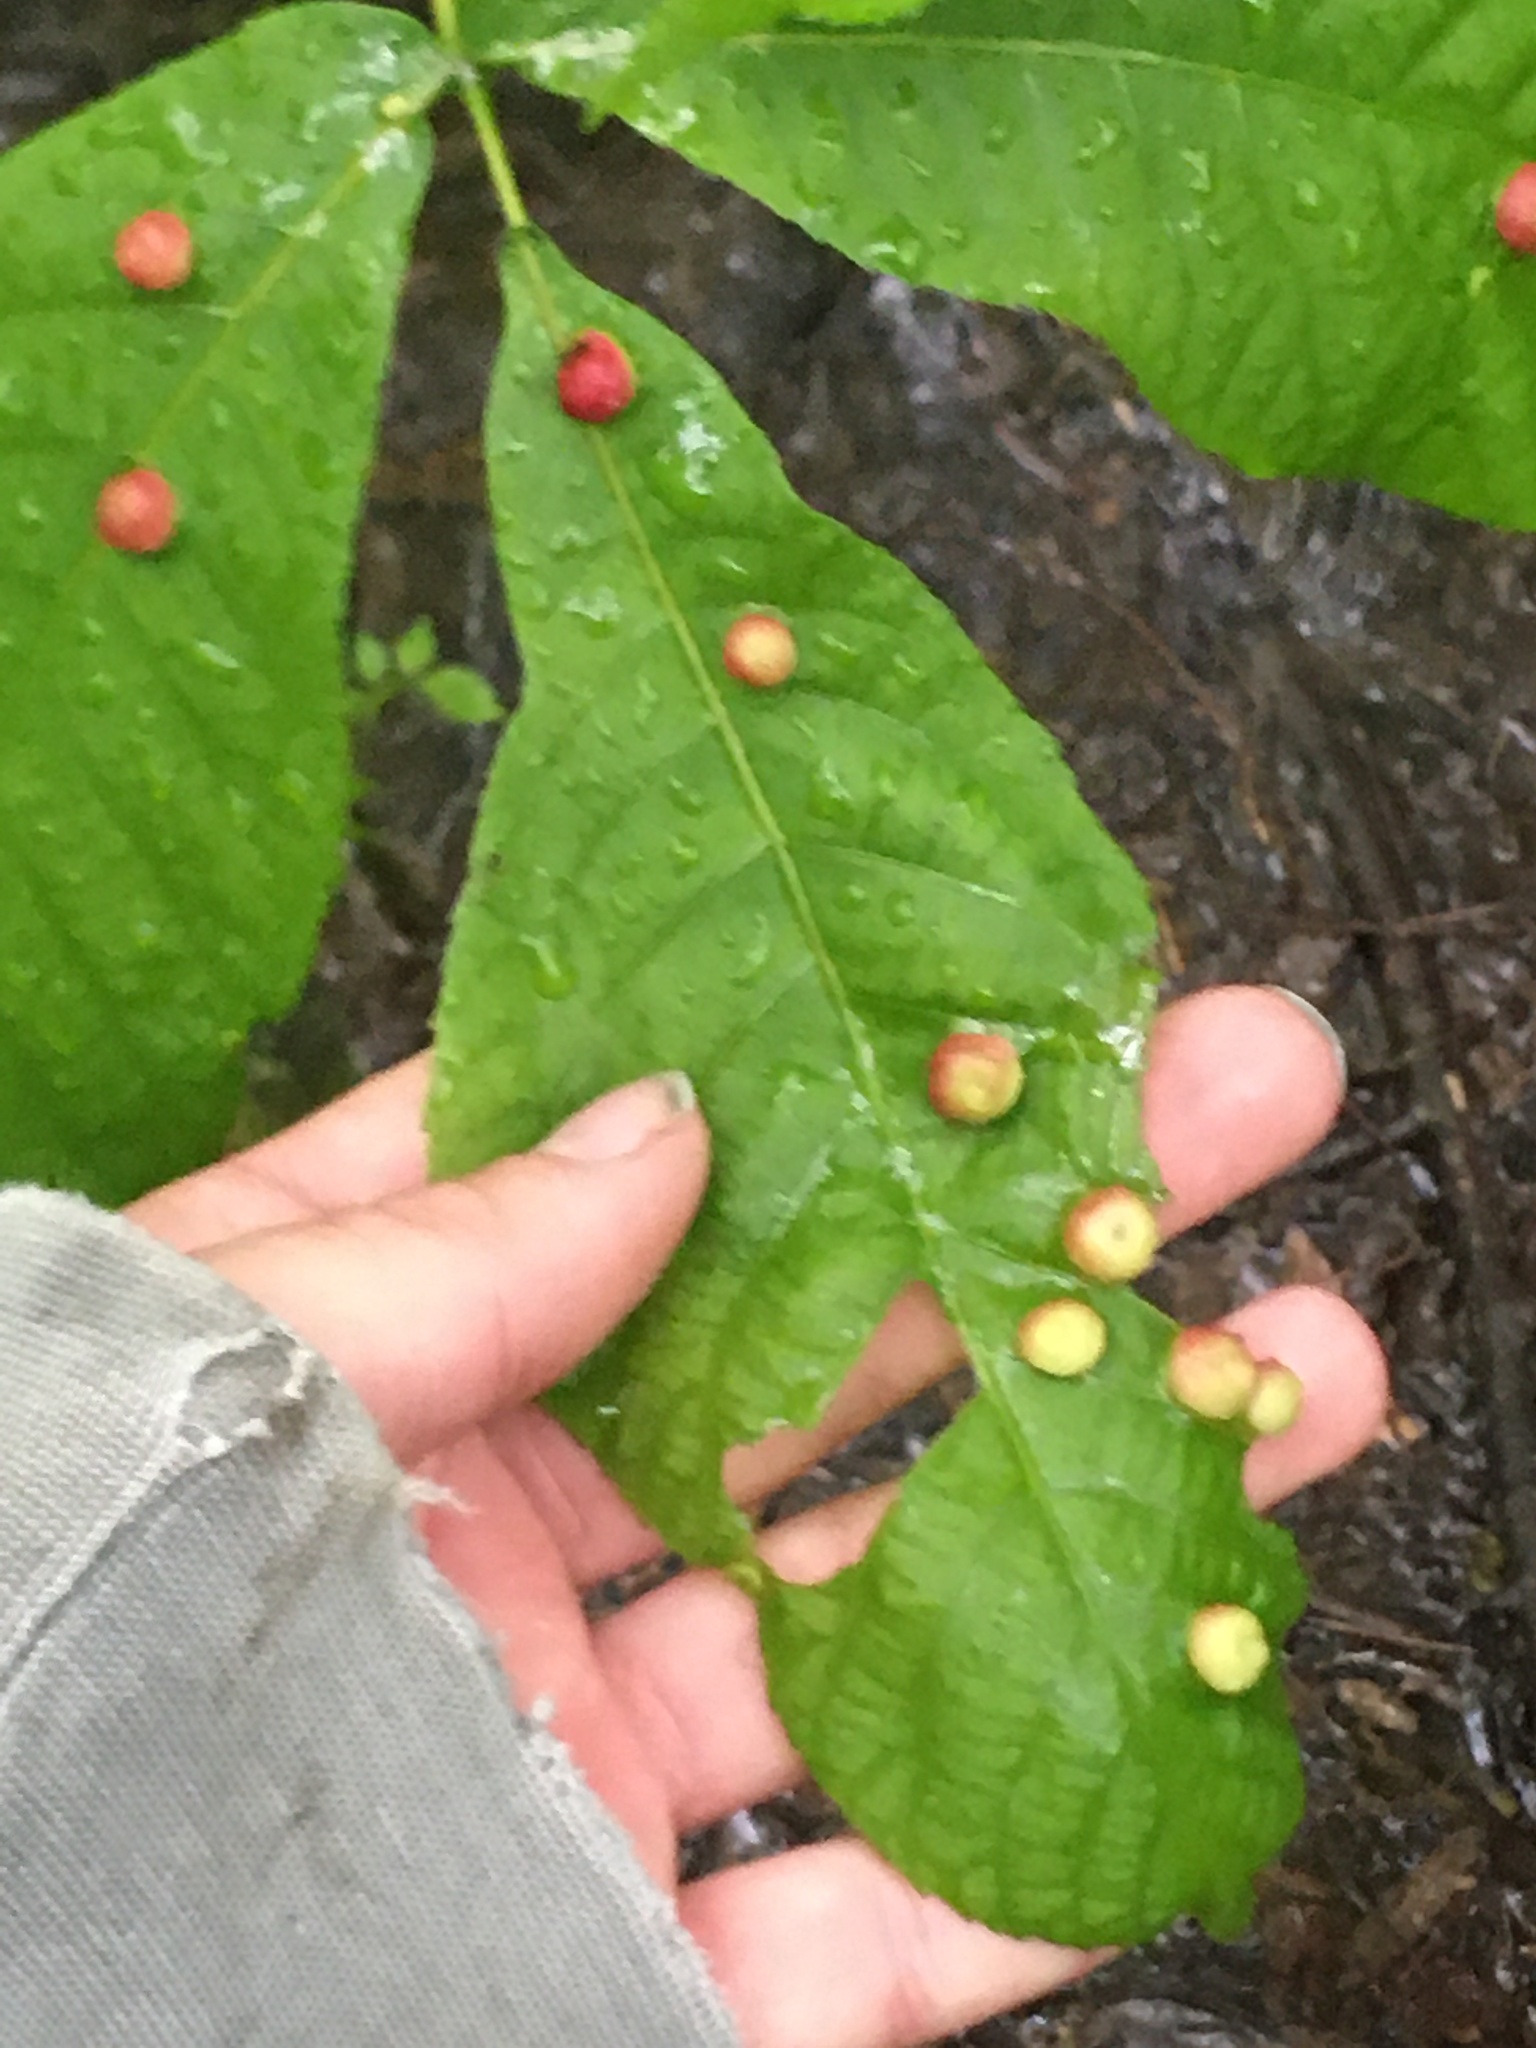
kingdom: Animalia
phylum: Arthropoda
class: Insecta
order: Hemiptera
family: Phylloxeridae
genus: Phylloxera
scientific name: Phylloxera caryae-globuli
